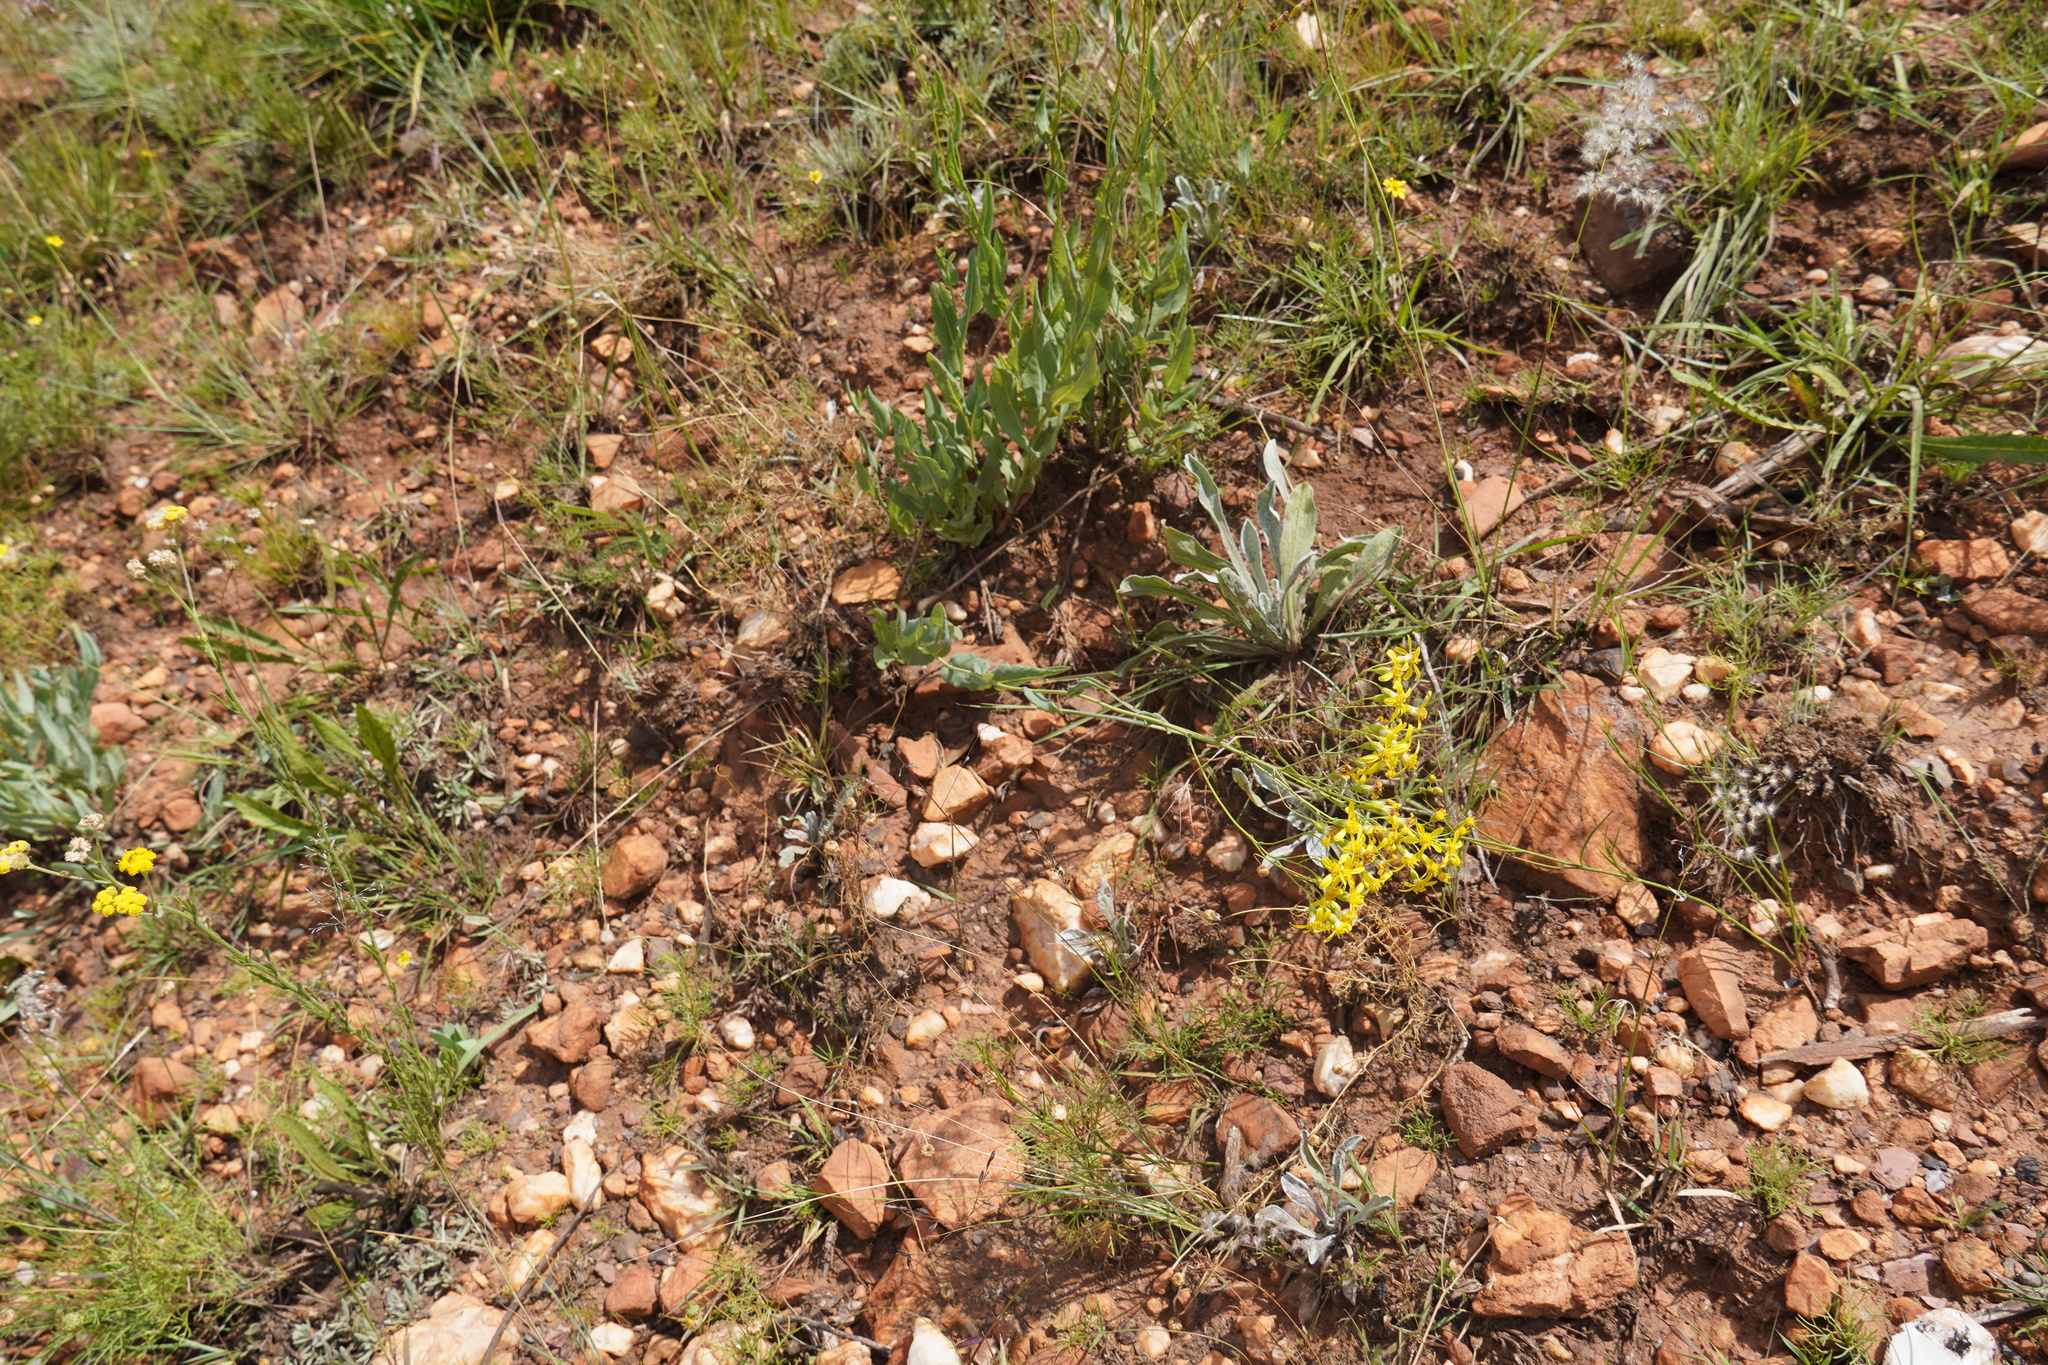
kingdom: Plantae
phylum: Tracheophyta
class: Magnoliopsida
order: Asterales
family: Asteraceae
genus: Senecio
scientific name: Senecio venosus
